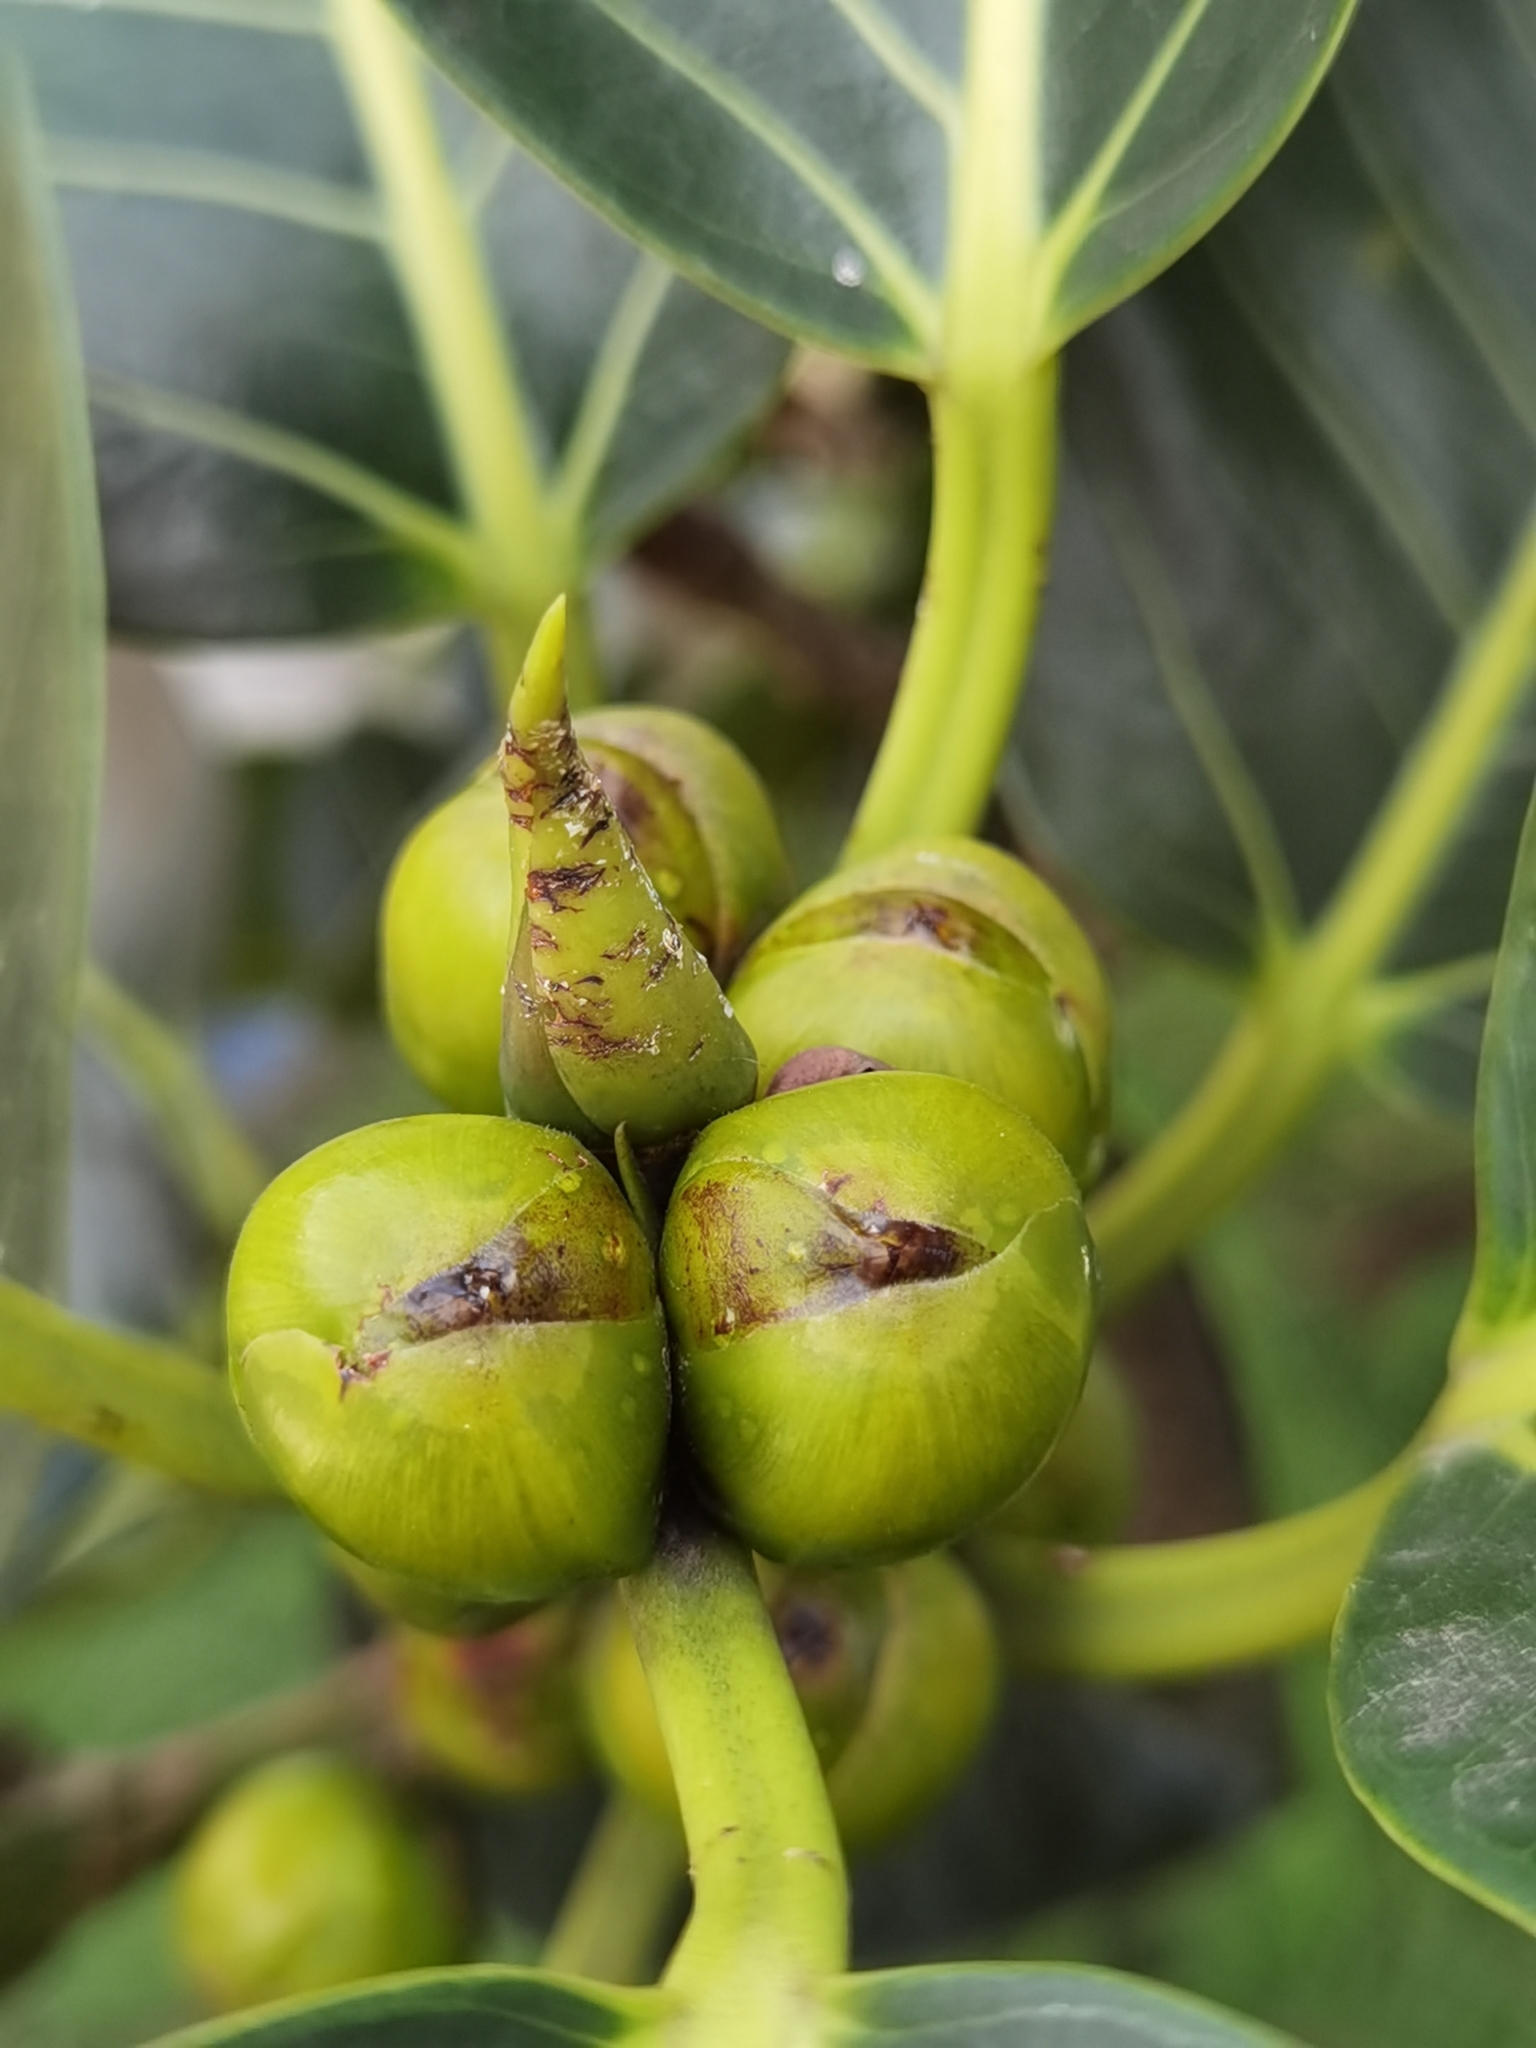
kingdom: Plantae
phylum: Tracheophyta
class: Magnoliopsida
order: Rosales
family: Moraceae
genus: Ficus
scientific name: Ficus aurea
